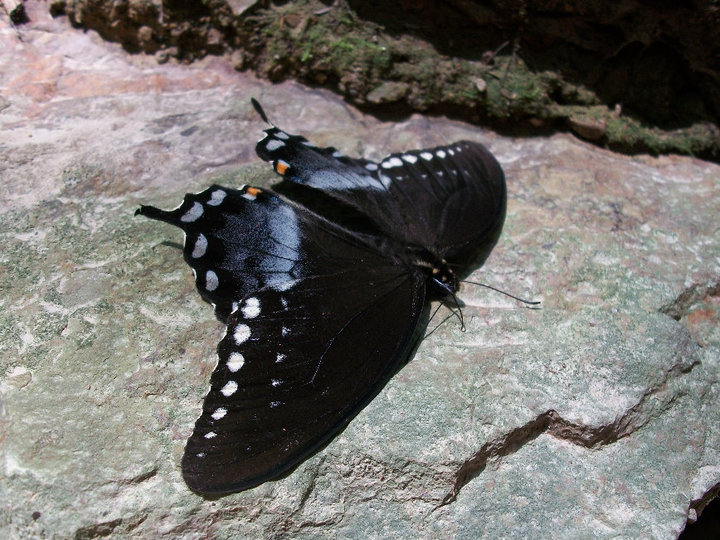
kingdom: Animalia
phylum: Arthropoda
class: Insecta
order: Lepidoptera
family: Papilionidae
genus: Papilio
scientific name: Papilio troilus
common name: Spicebush swallowtail
